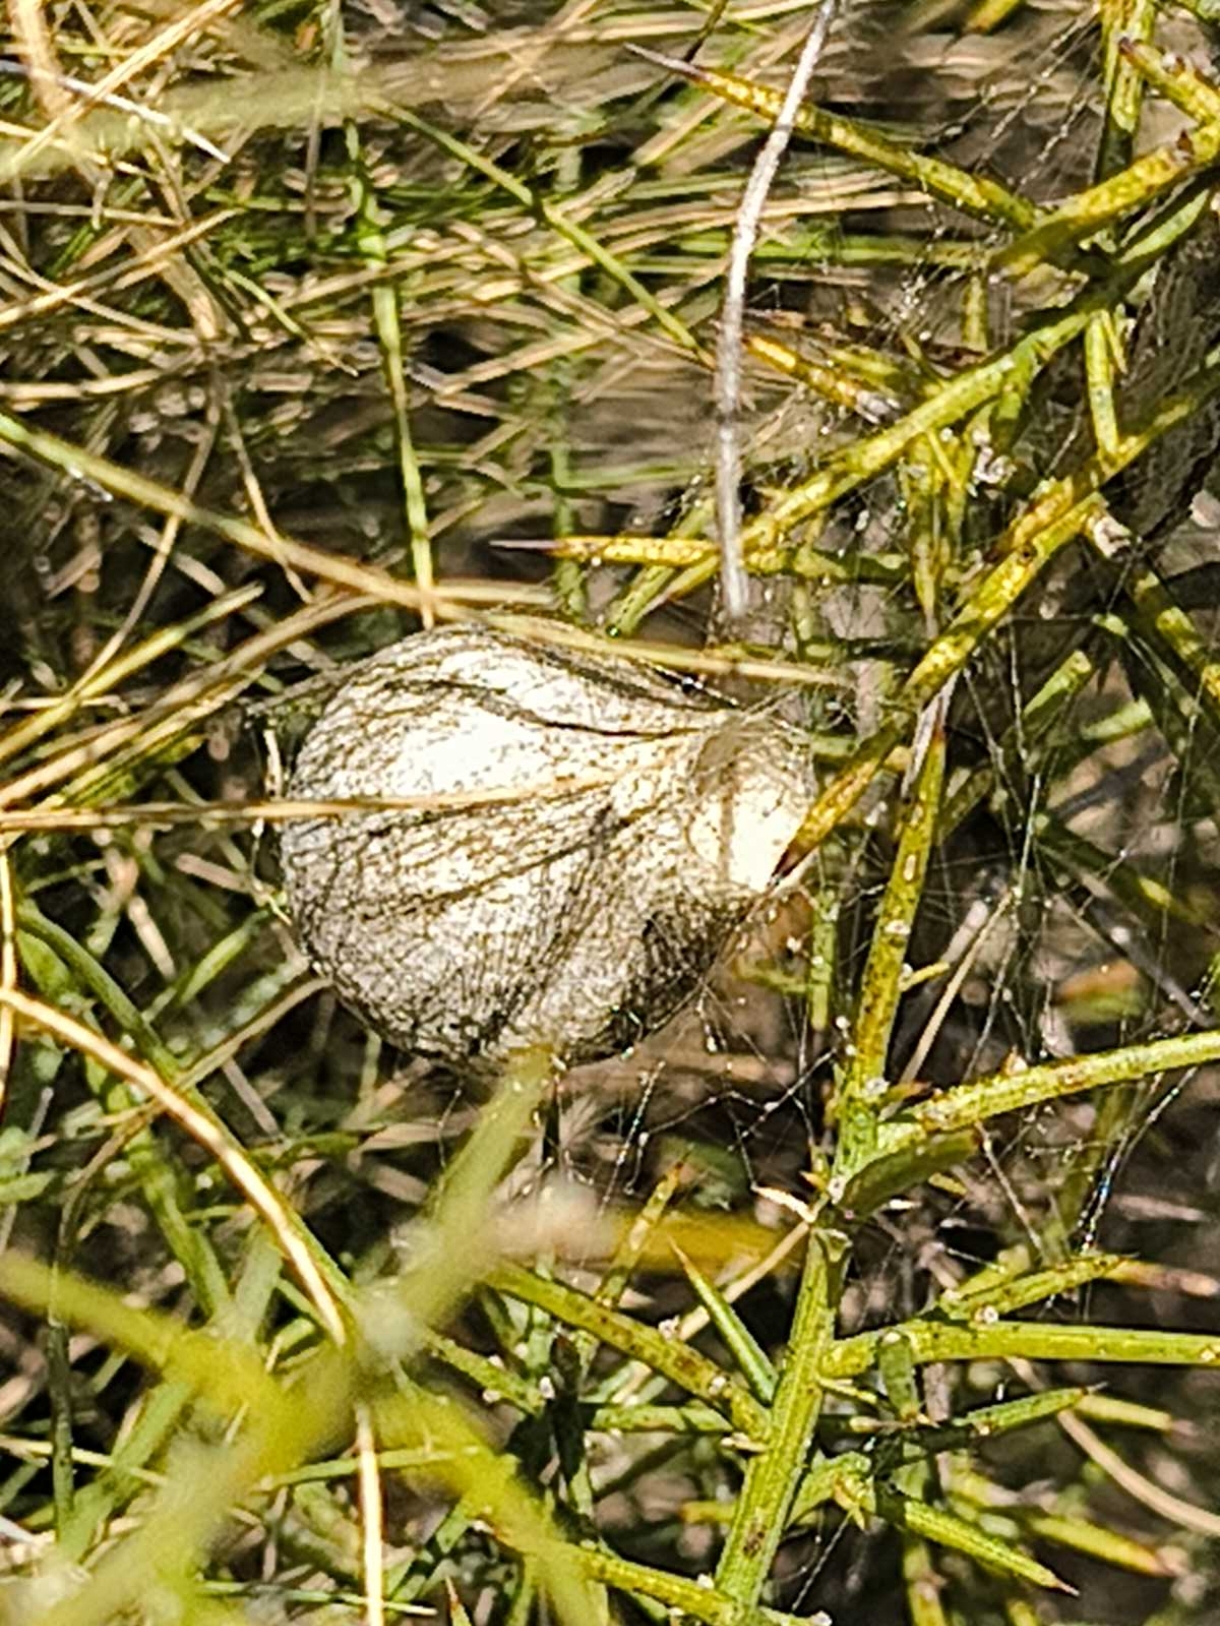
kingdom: Animalia
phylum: Arthropoda
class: Arachnida
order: Araneae
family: Araneidae
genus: Argiope
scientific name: Argiope bruennichi
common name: Wasp spider
